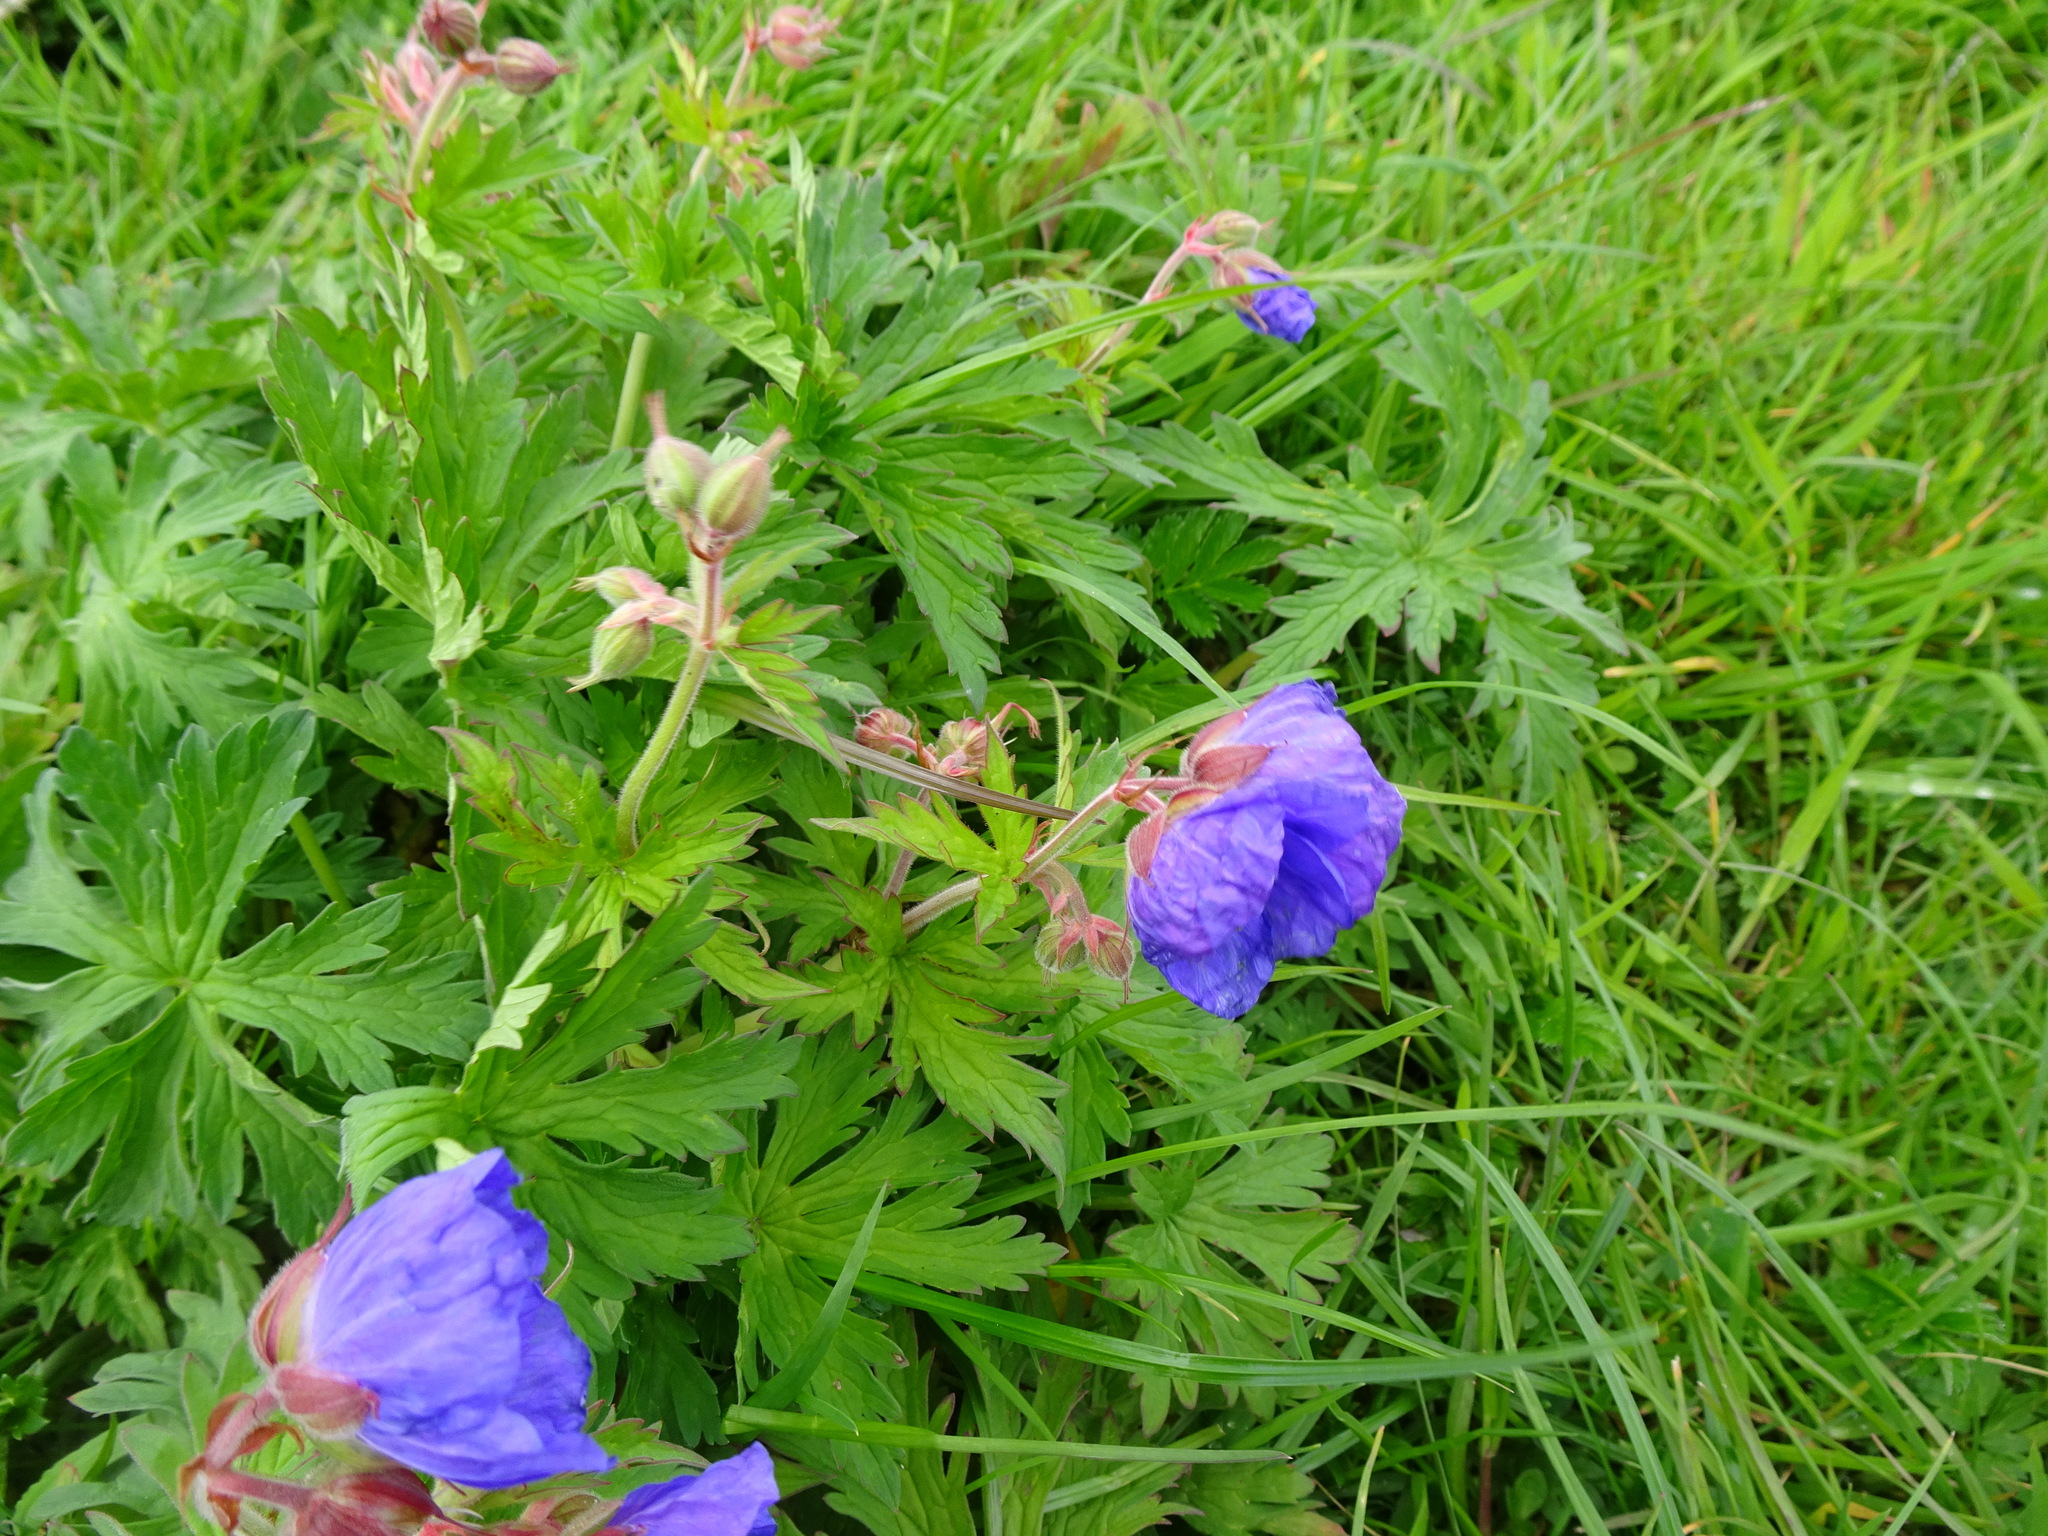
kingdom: Plantae
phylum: Tracheophyta
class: Magnoliopsida
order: Geraniales
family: Geraniaceae
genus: Geranium
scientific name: Geranium pratense
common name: Meadow crane's-bill
